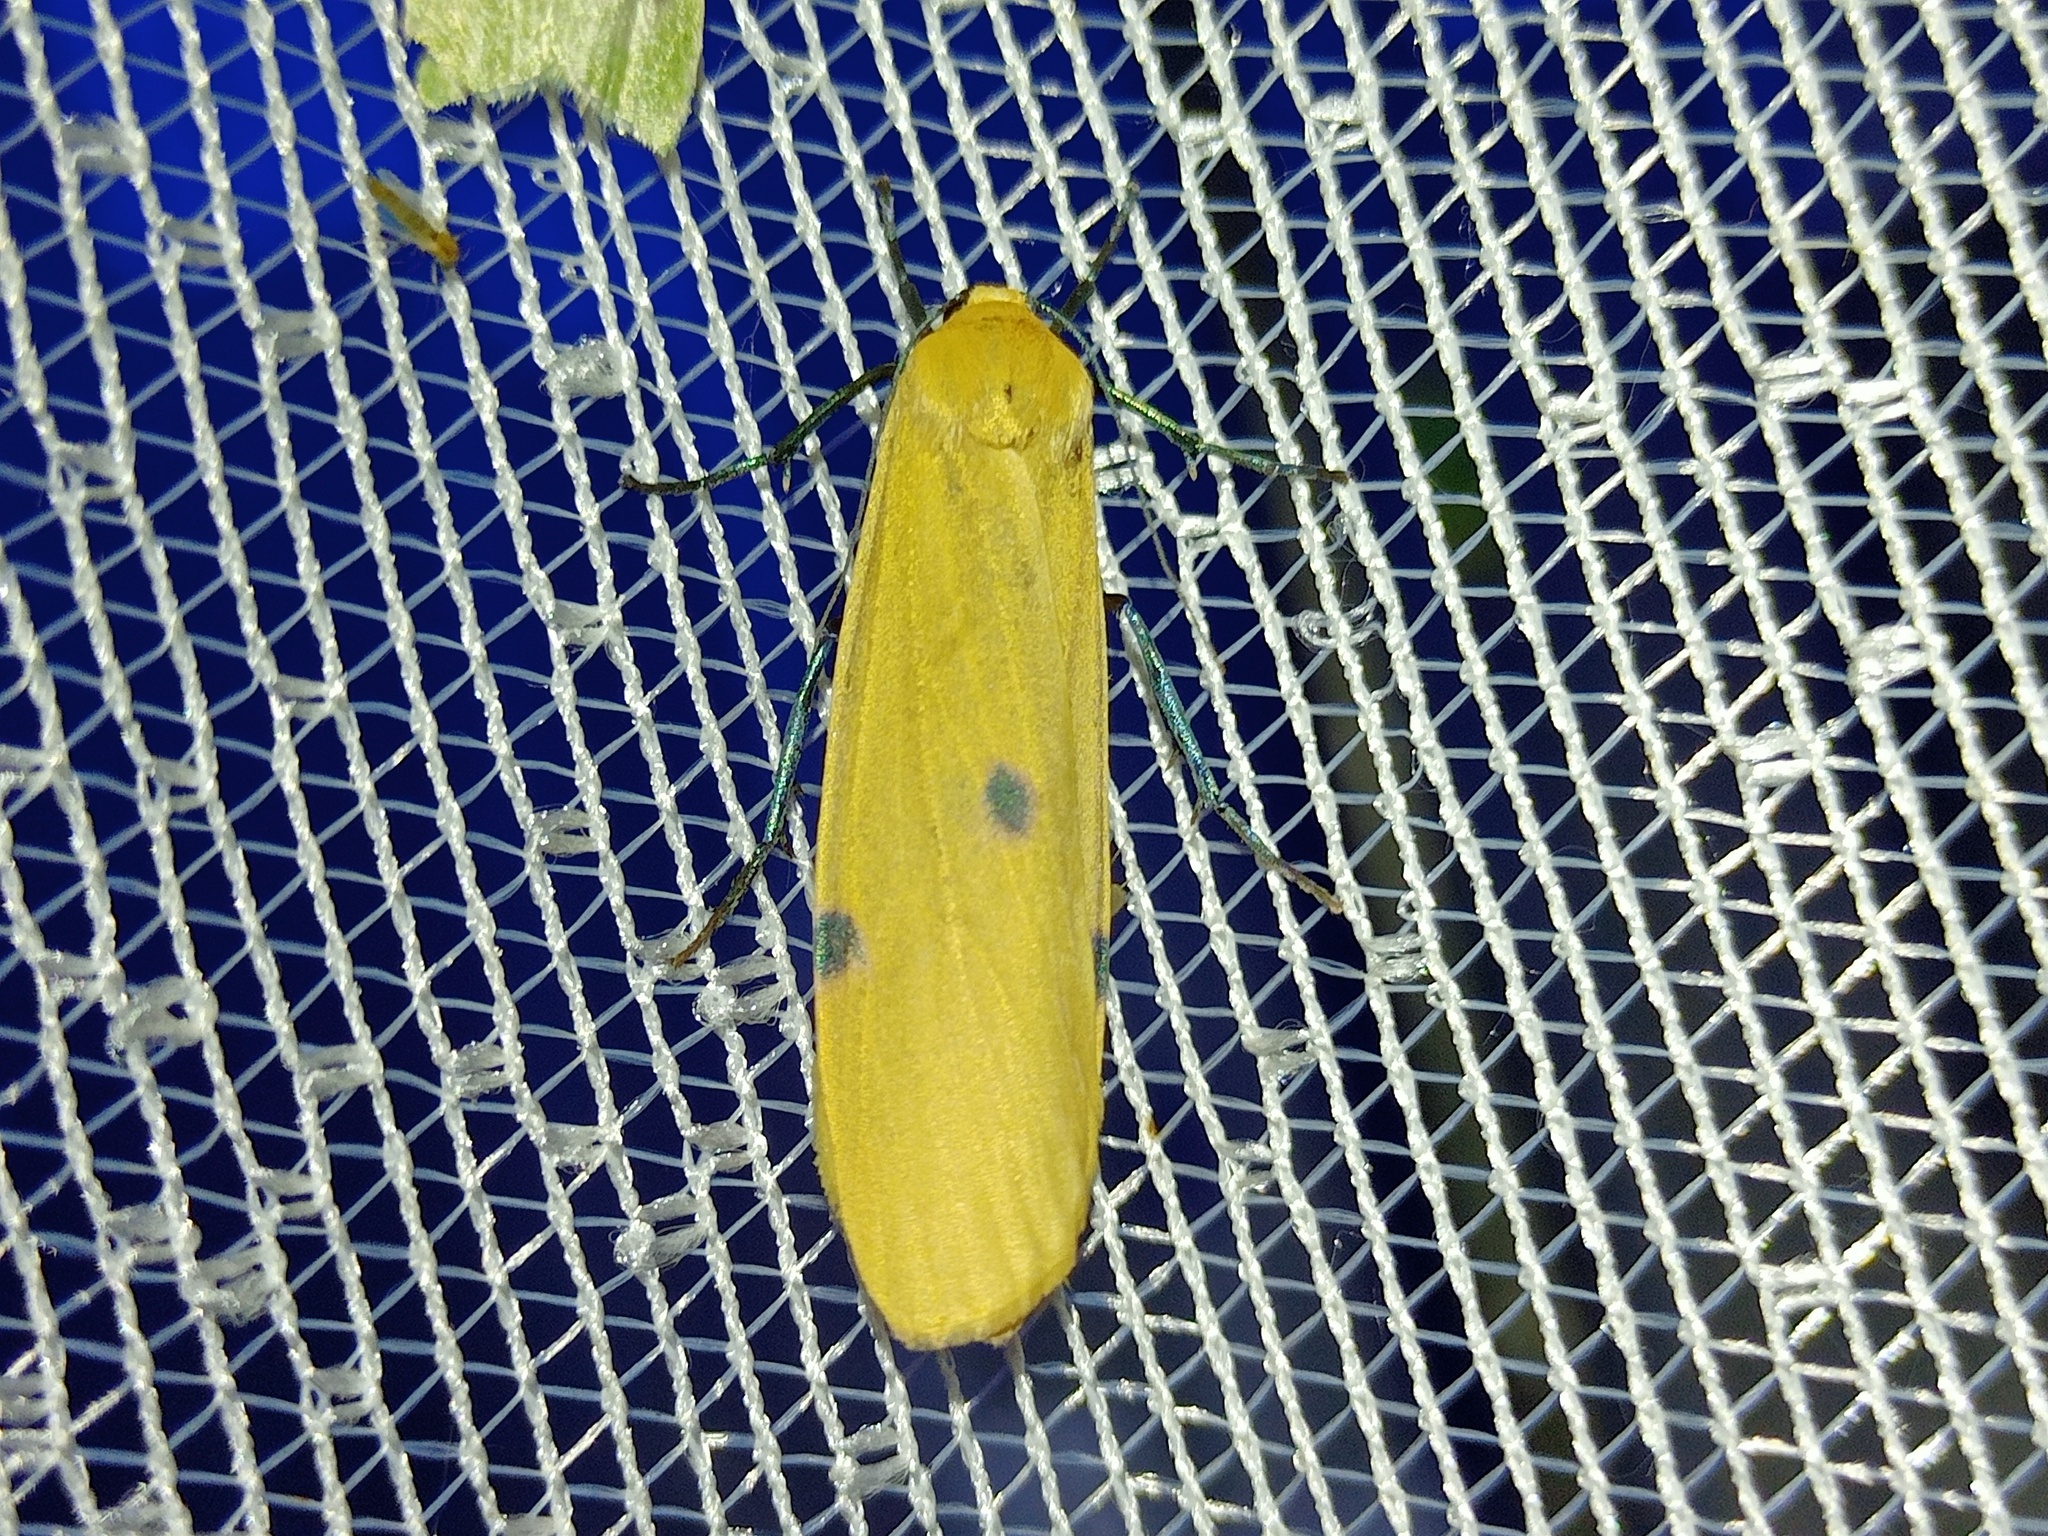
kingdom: Animalia
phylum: Arthropoda
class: Insecta
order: Lepidoptera
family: Erebidae
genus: Lithosia
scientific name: Lithosia quadra
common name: Four-spotted footman
